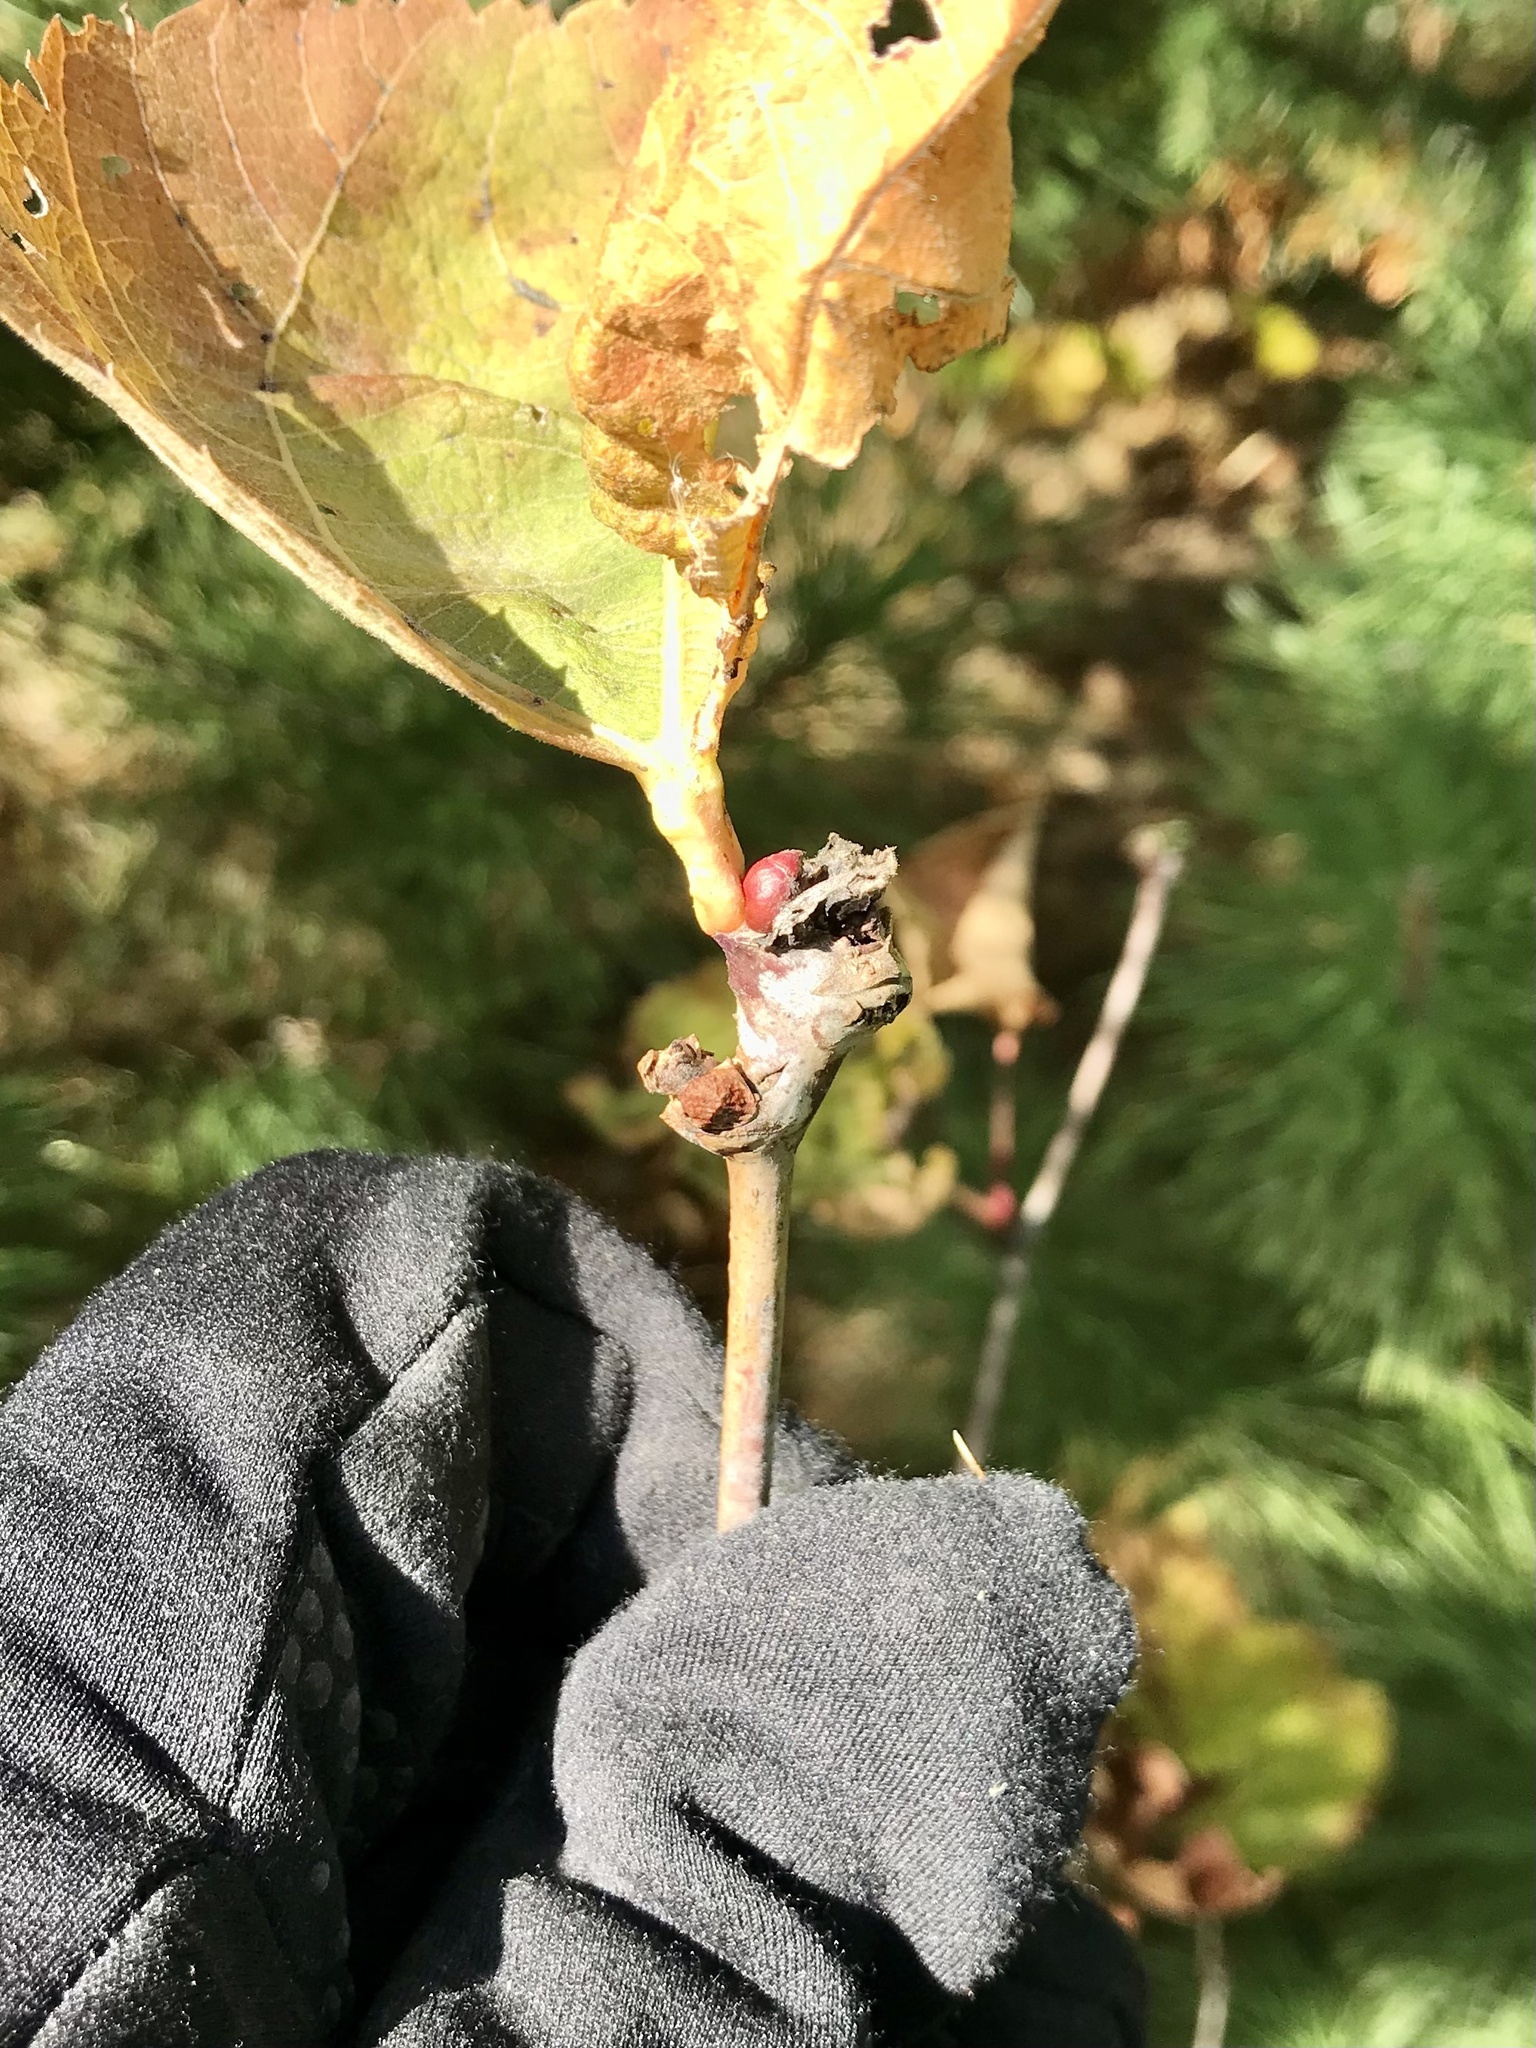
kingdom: Animalia
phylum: Arthropoda
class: Insecta
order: Diptera
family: Cecidomyiidae
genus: Contarinia
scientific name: Contarinia citrina
